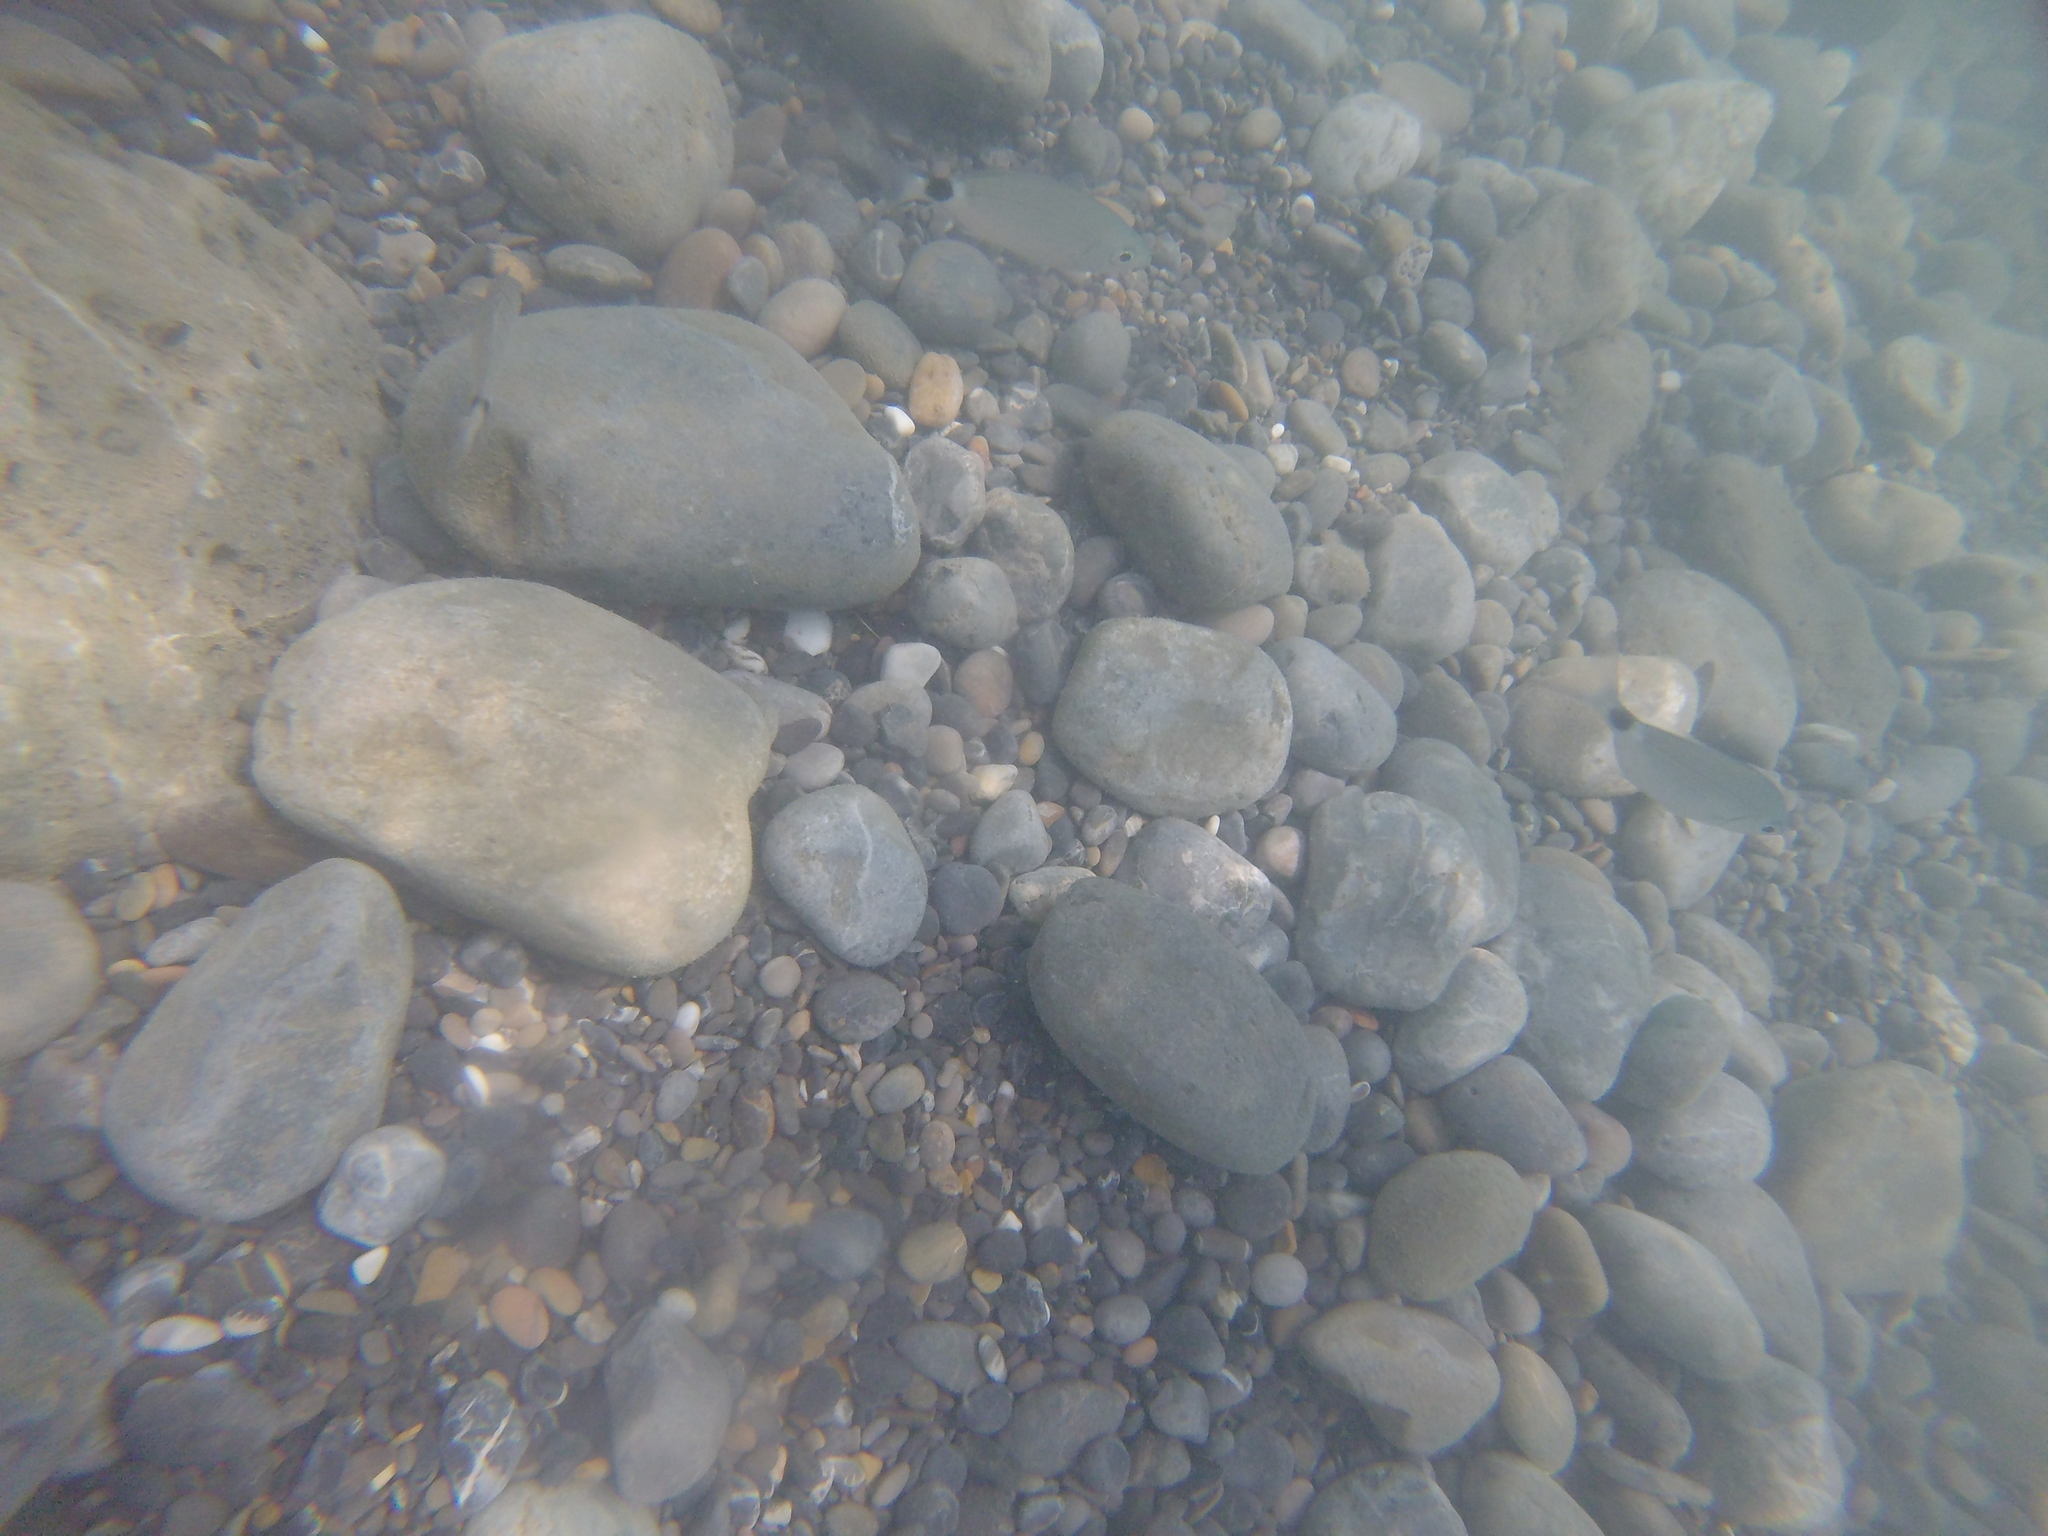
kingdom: Animalia
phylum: Chordata
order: Perciformes
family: Sparidae
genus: Oblada
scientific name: Oblada melanura
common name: Saddled seabream
